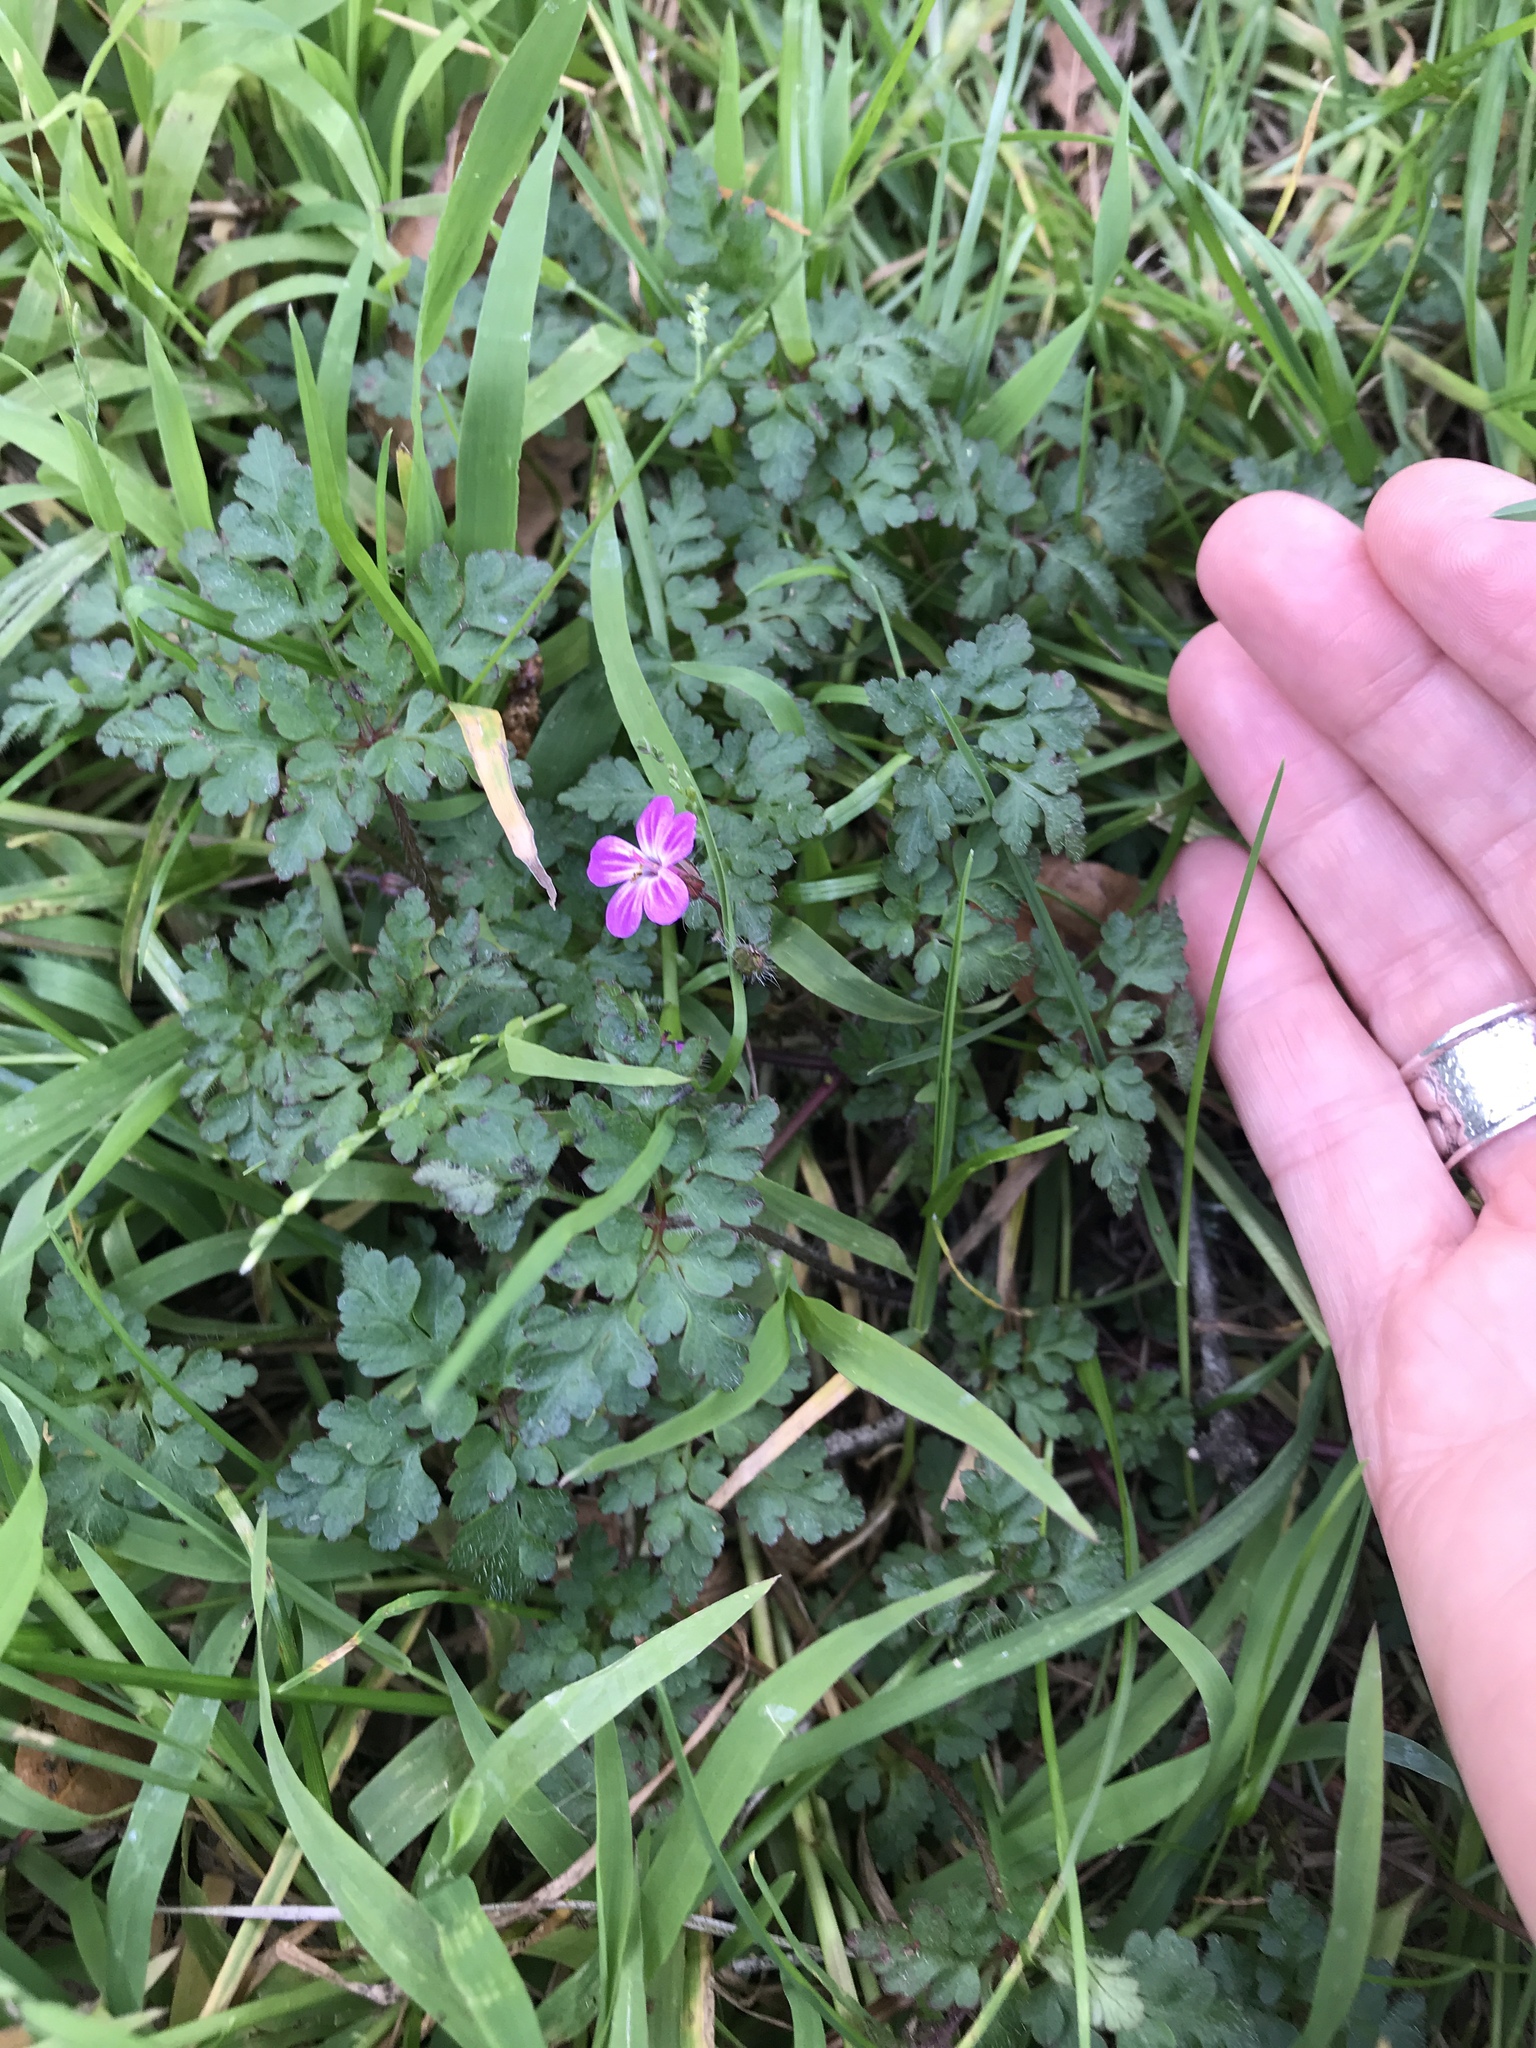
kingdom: Plantae
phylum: Tracheophyta
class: Magnoliopsida
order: Geraniales
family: Geraniaceae
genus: Geranium
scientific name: Geranium robertianum
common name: Herb-robert
